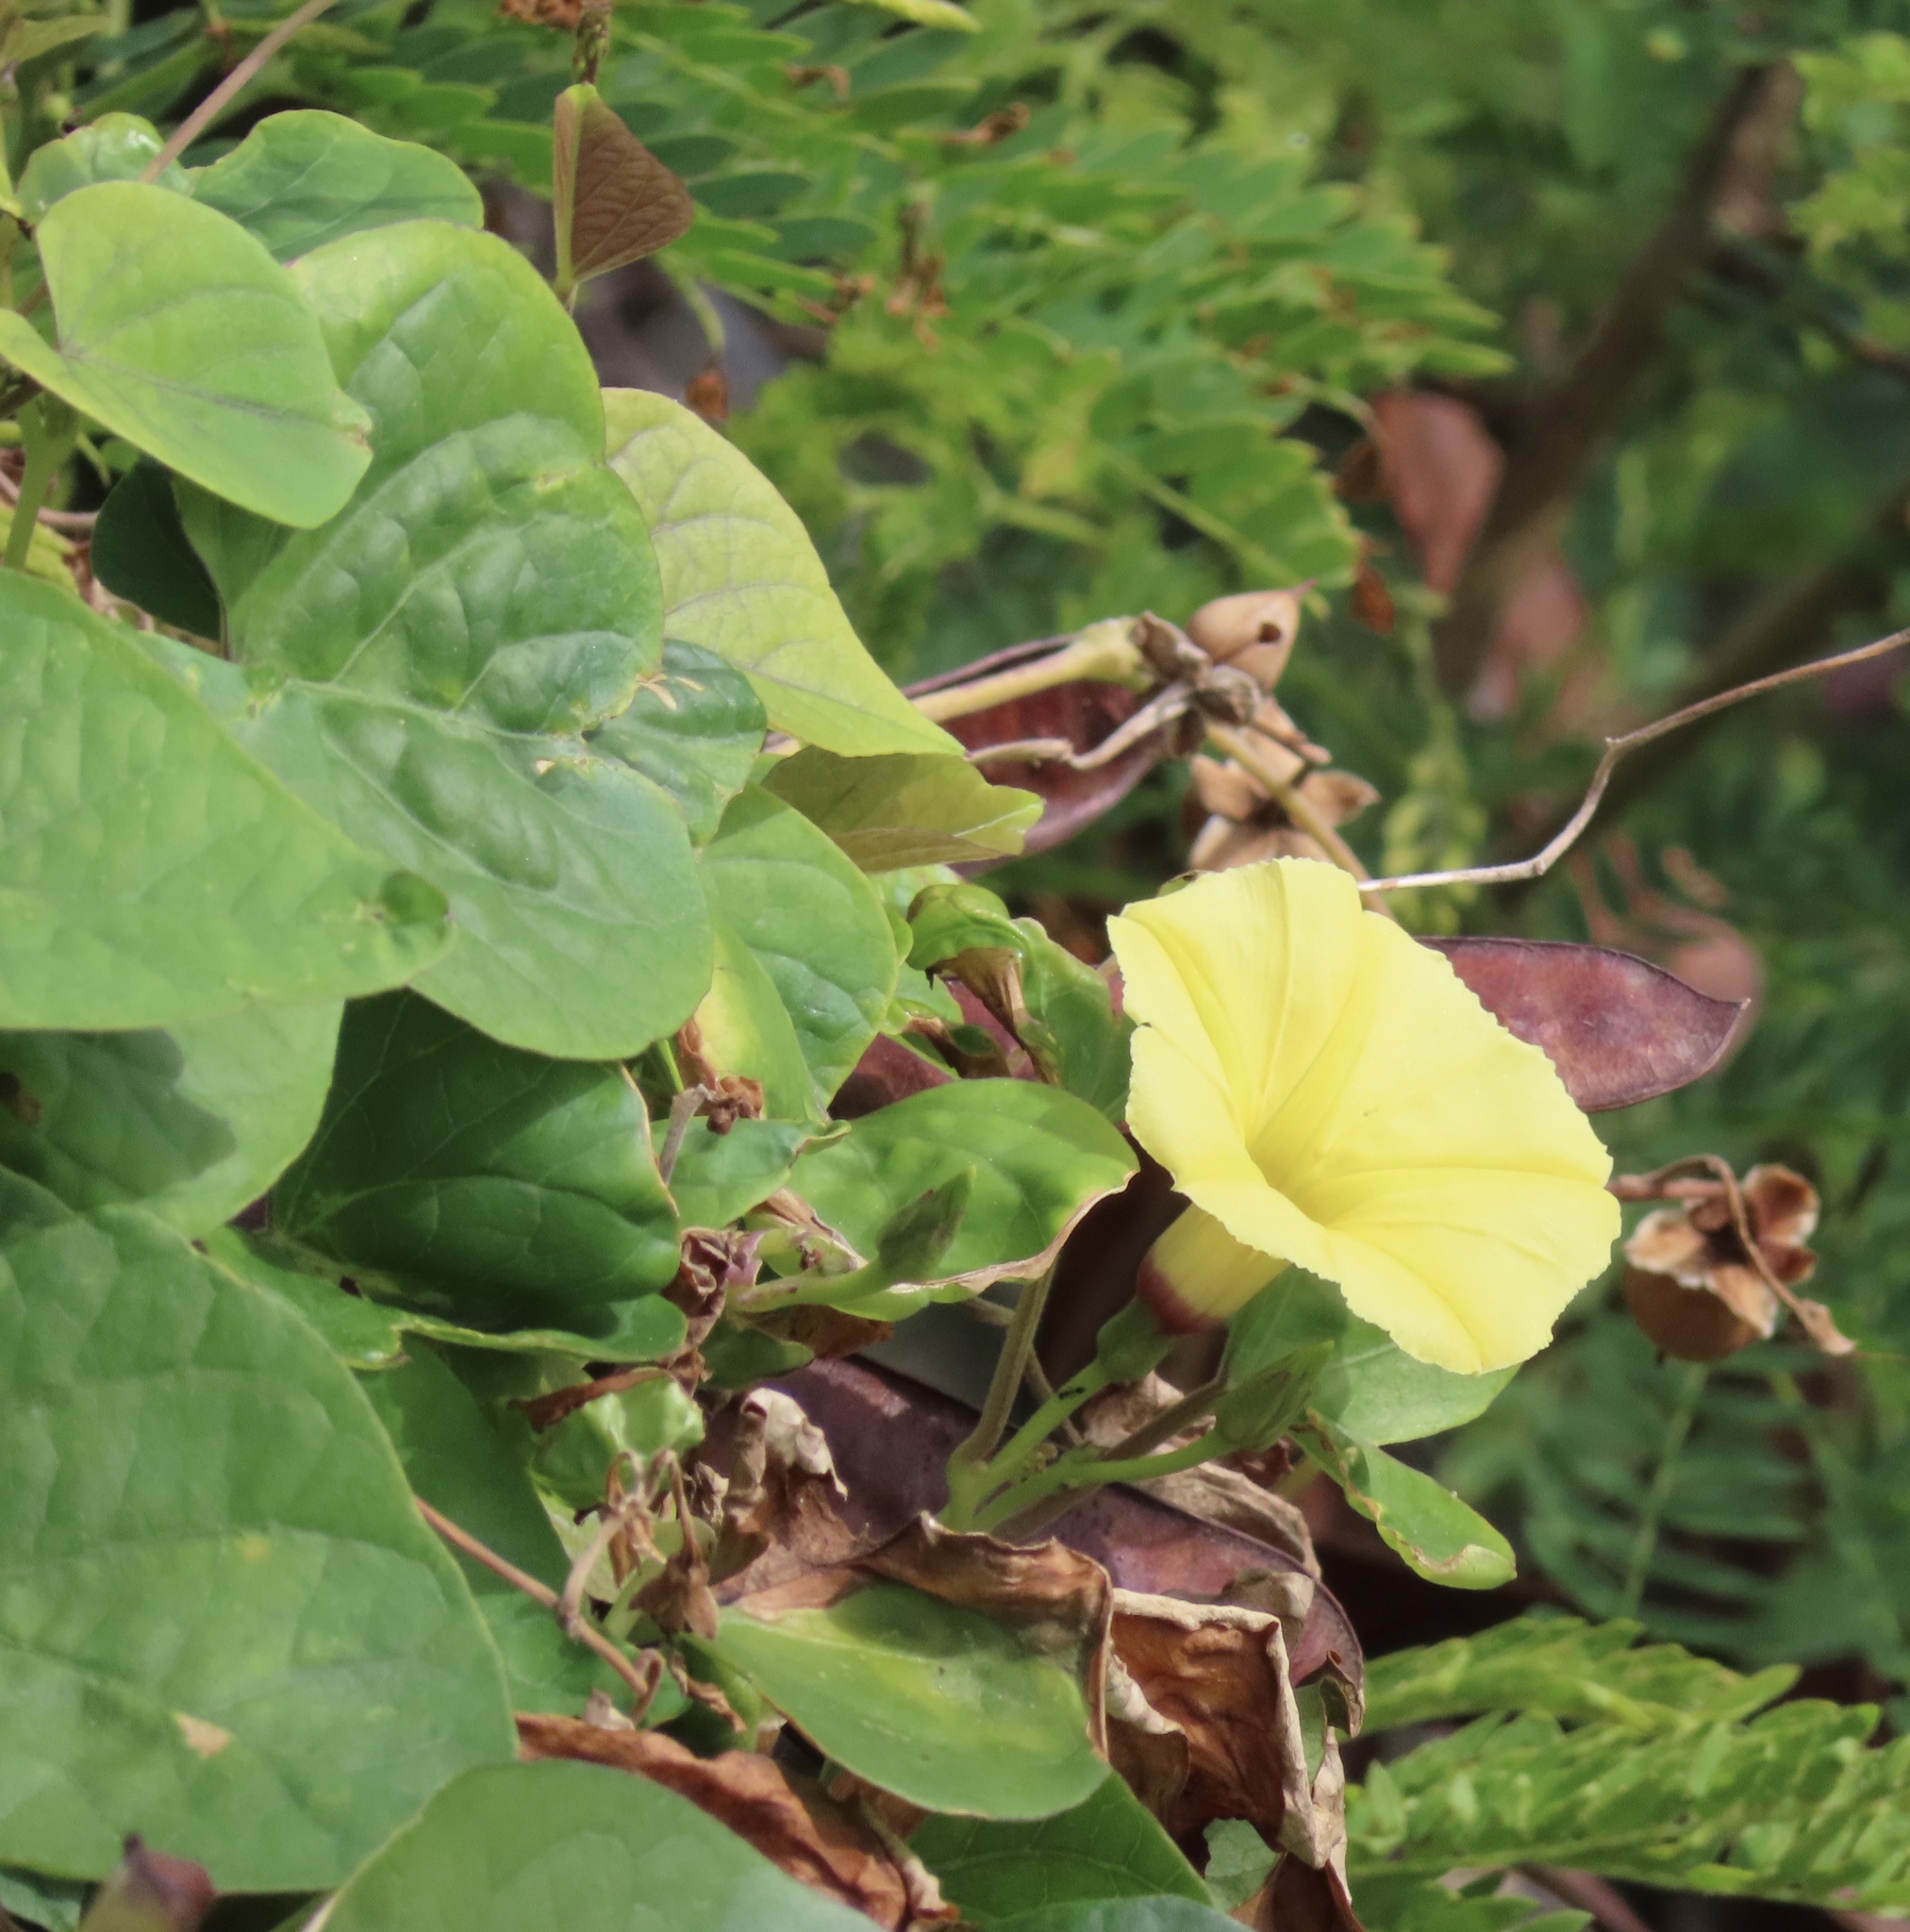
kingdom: Plantae
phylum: Tracheophyta
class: Magnoliopsida
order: Solanales
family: Convolvulaceae
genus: Ipomoea
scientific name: Ipomoea ochracea
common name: Fence morning-glory
